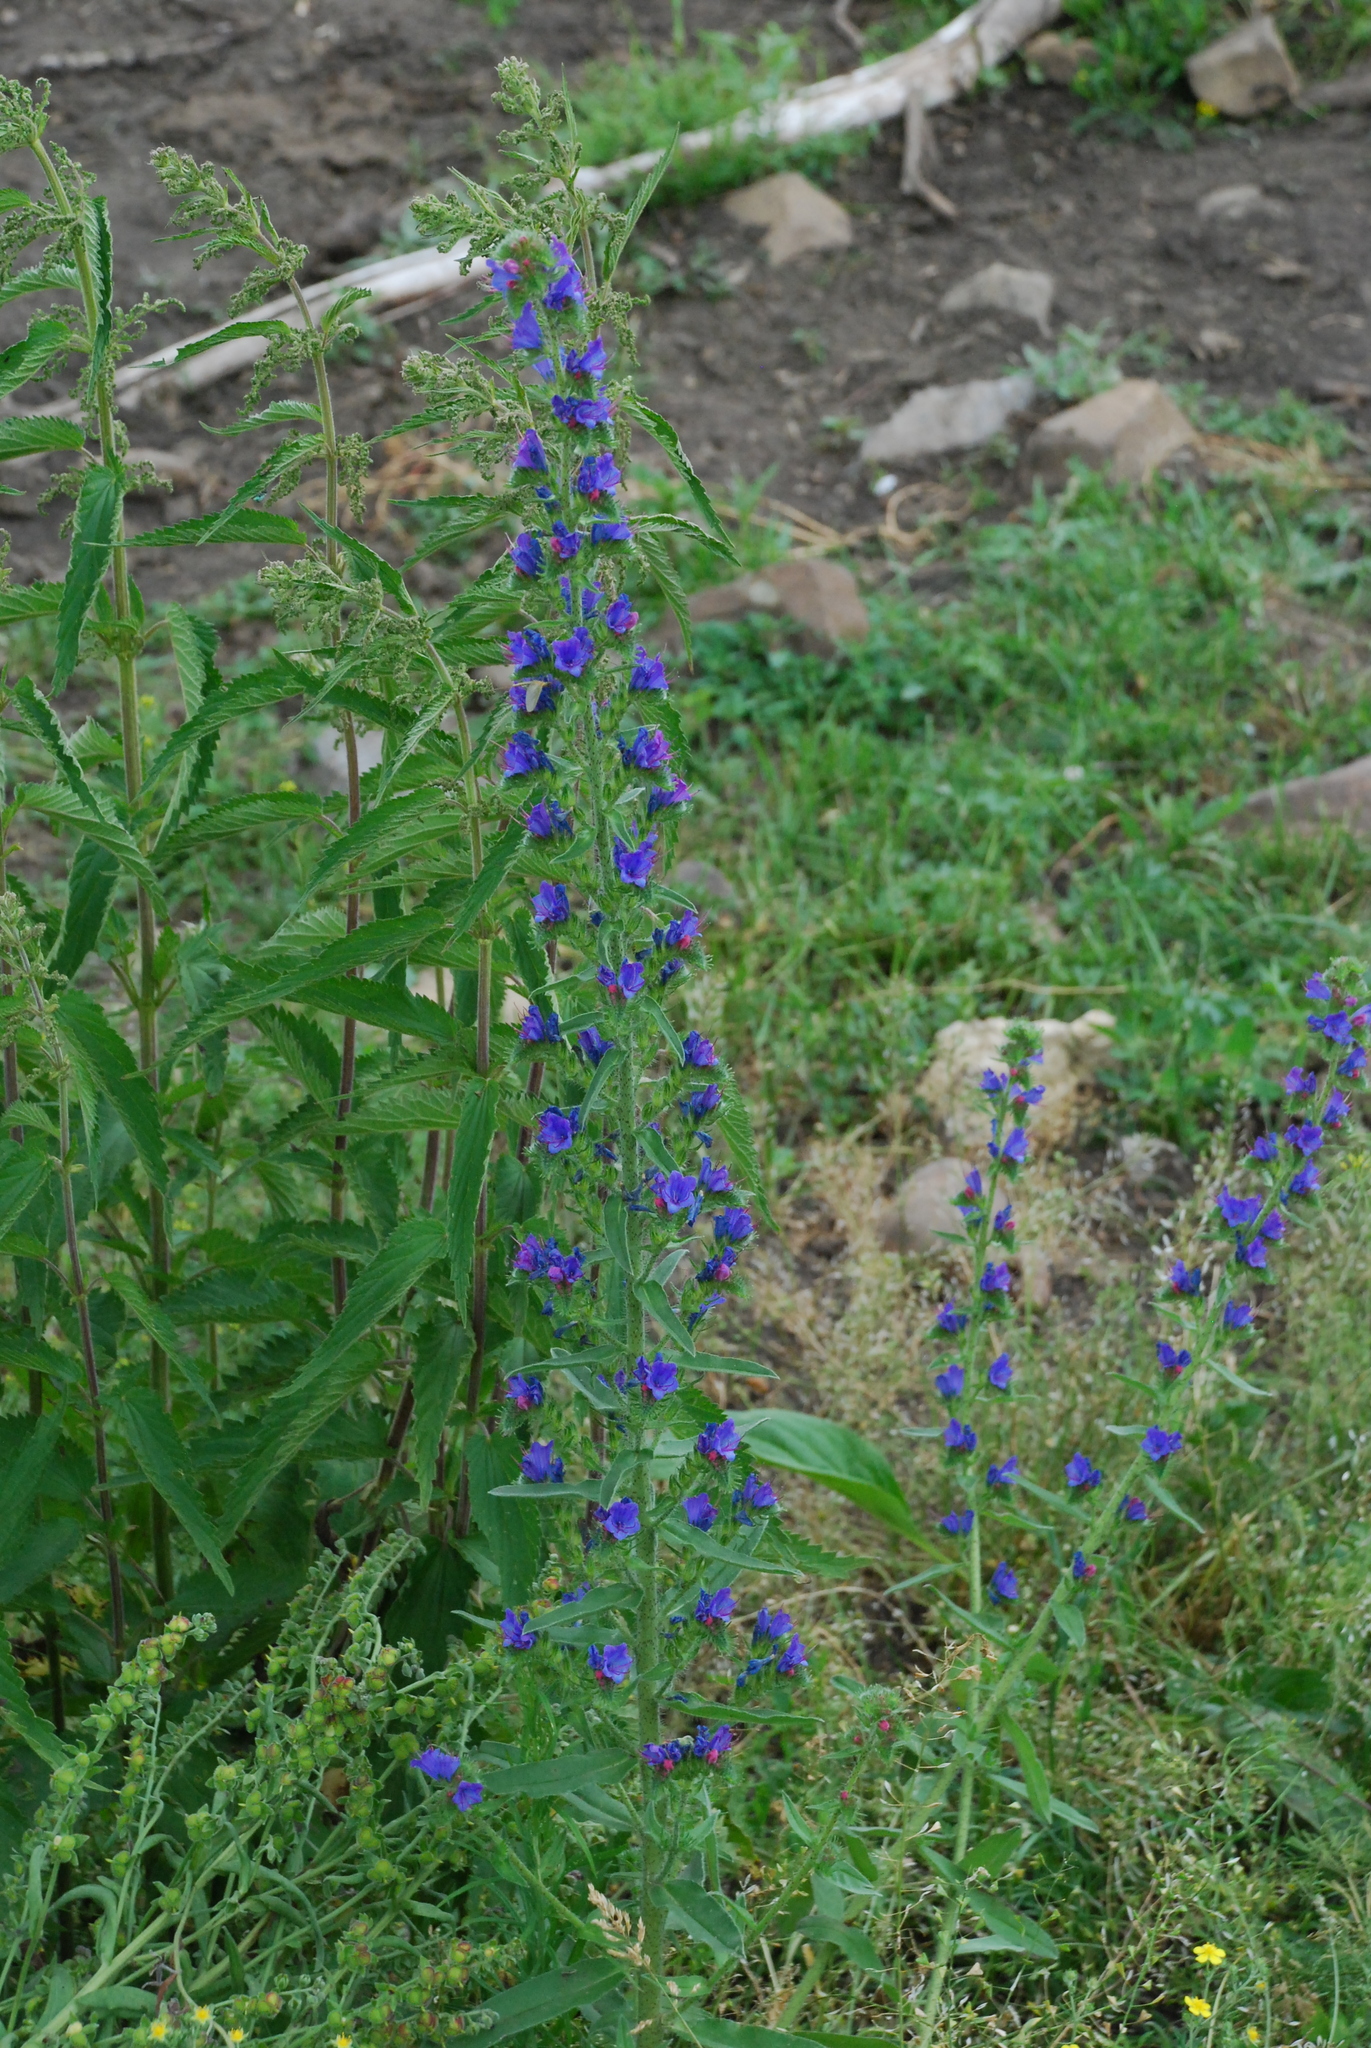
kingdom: Plantae
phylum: Tracheophyta
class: Magnoliopsida
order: Boraginales
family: Boraginaceae
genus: Echium
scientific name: Echium vulgare
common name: Common viper's bugloss
